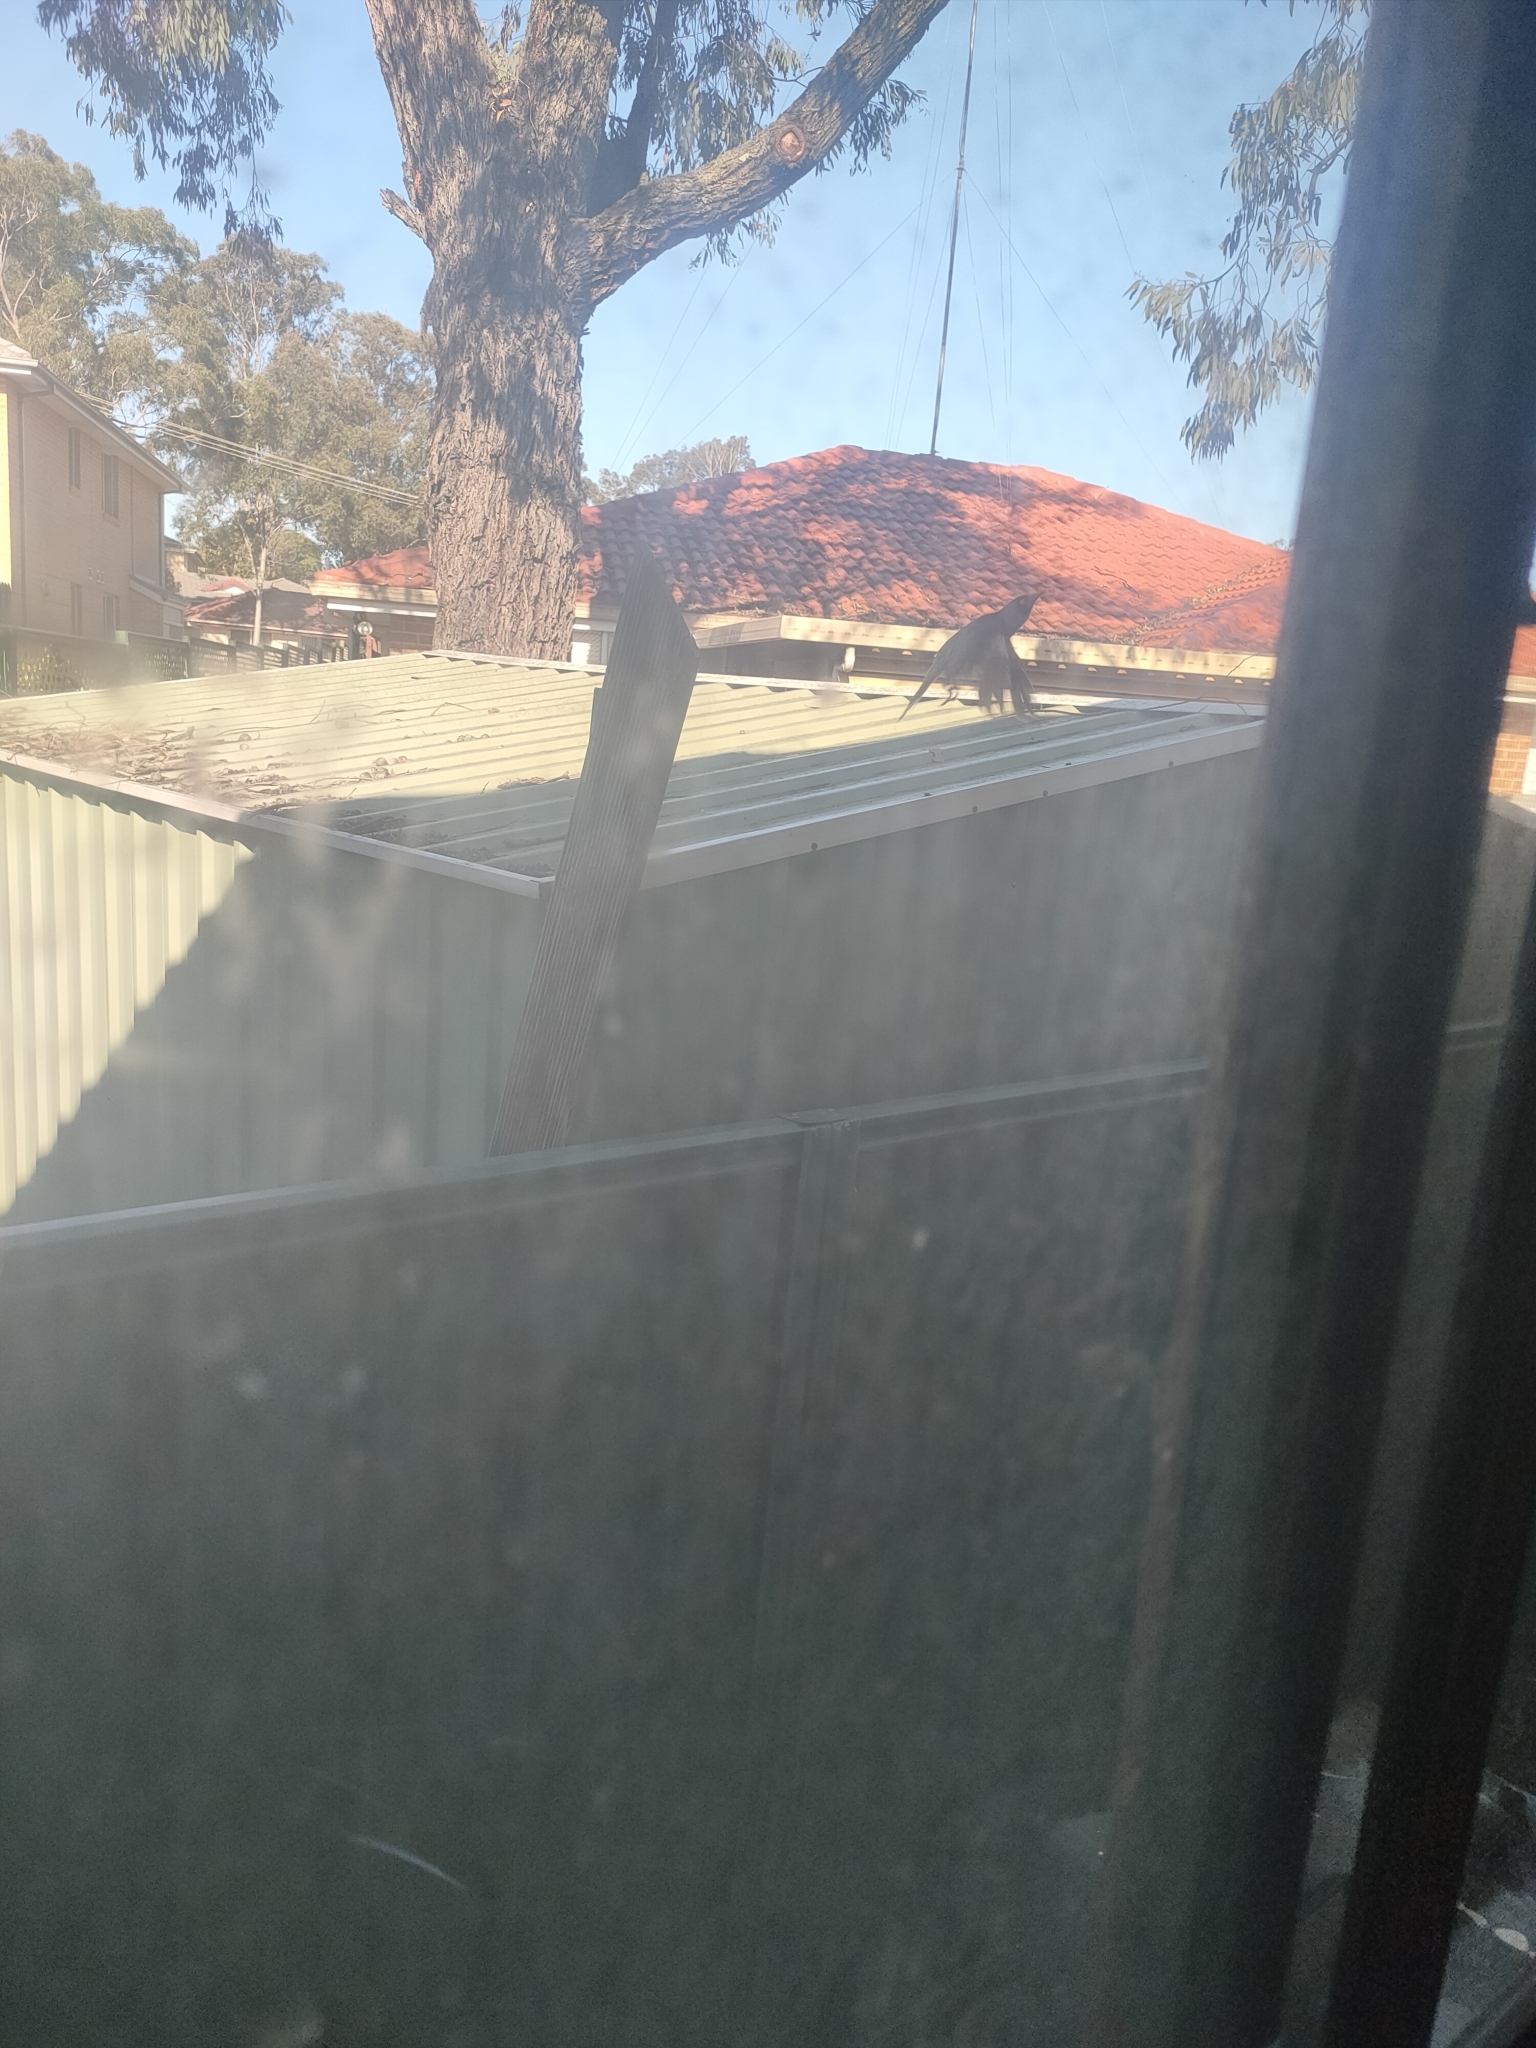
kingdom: Animalia
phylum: Chordata
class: Aves
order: Passeriformes
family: Meliphagidae
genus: Manorina
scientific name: Manorina melanocephala
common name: Noisy miner
